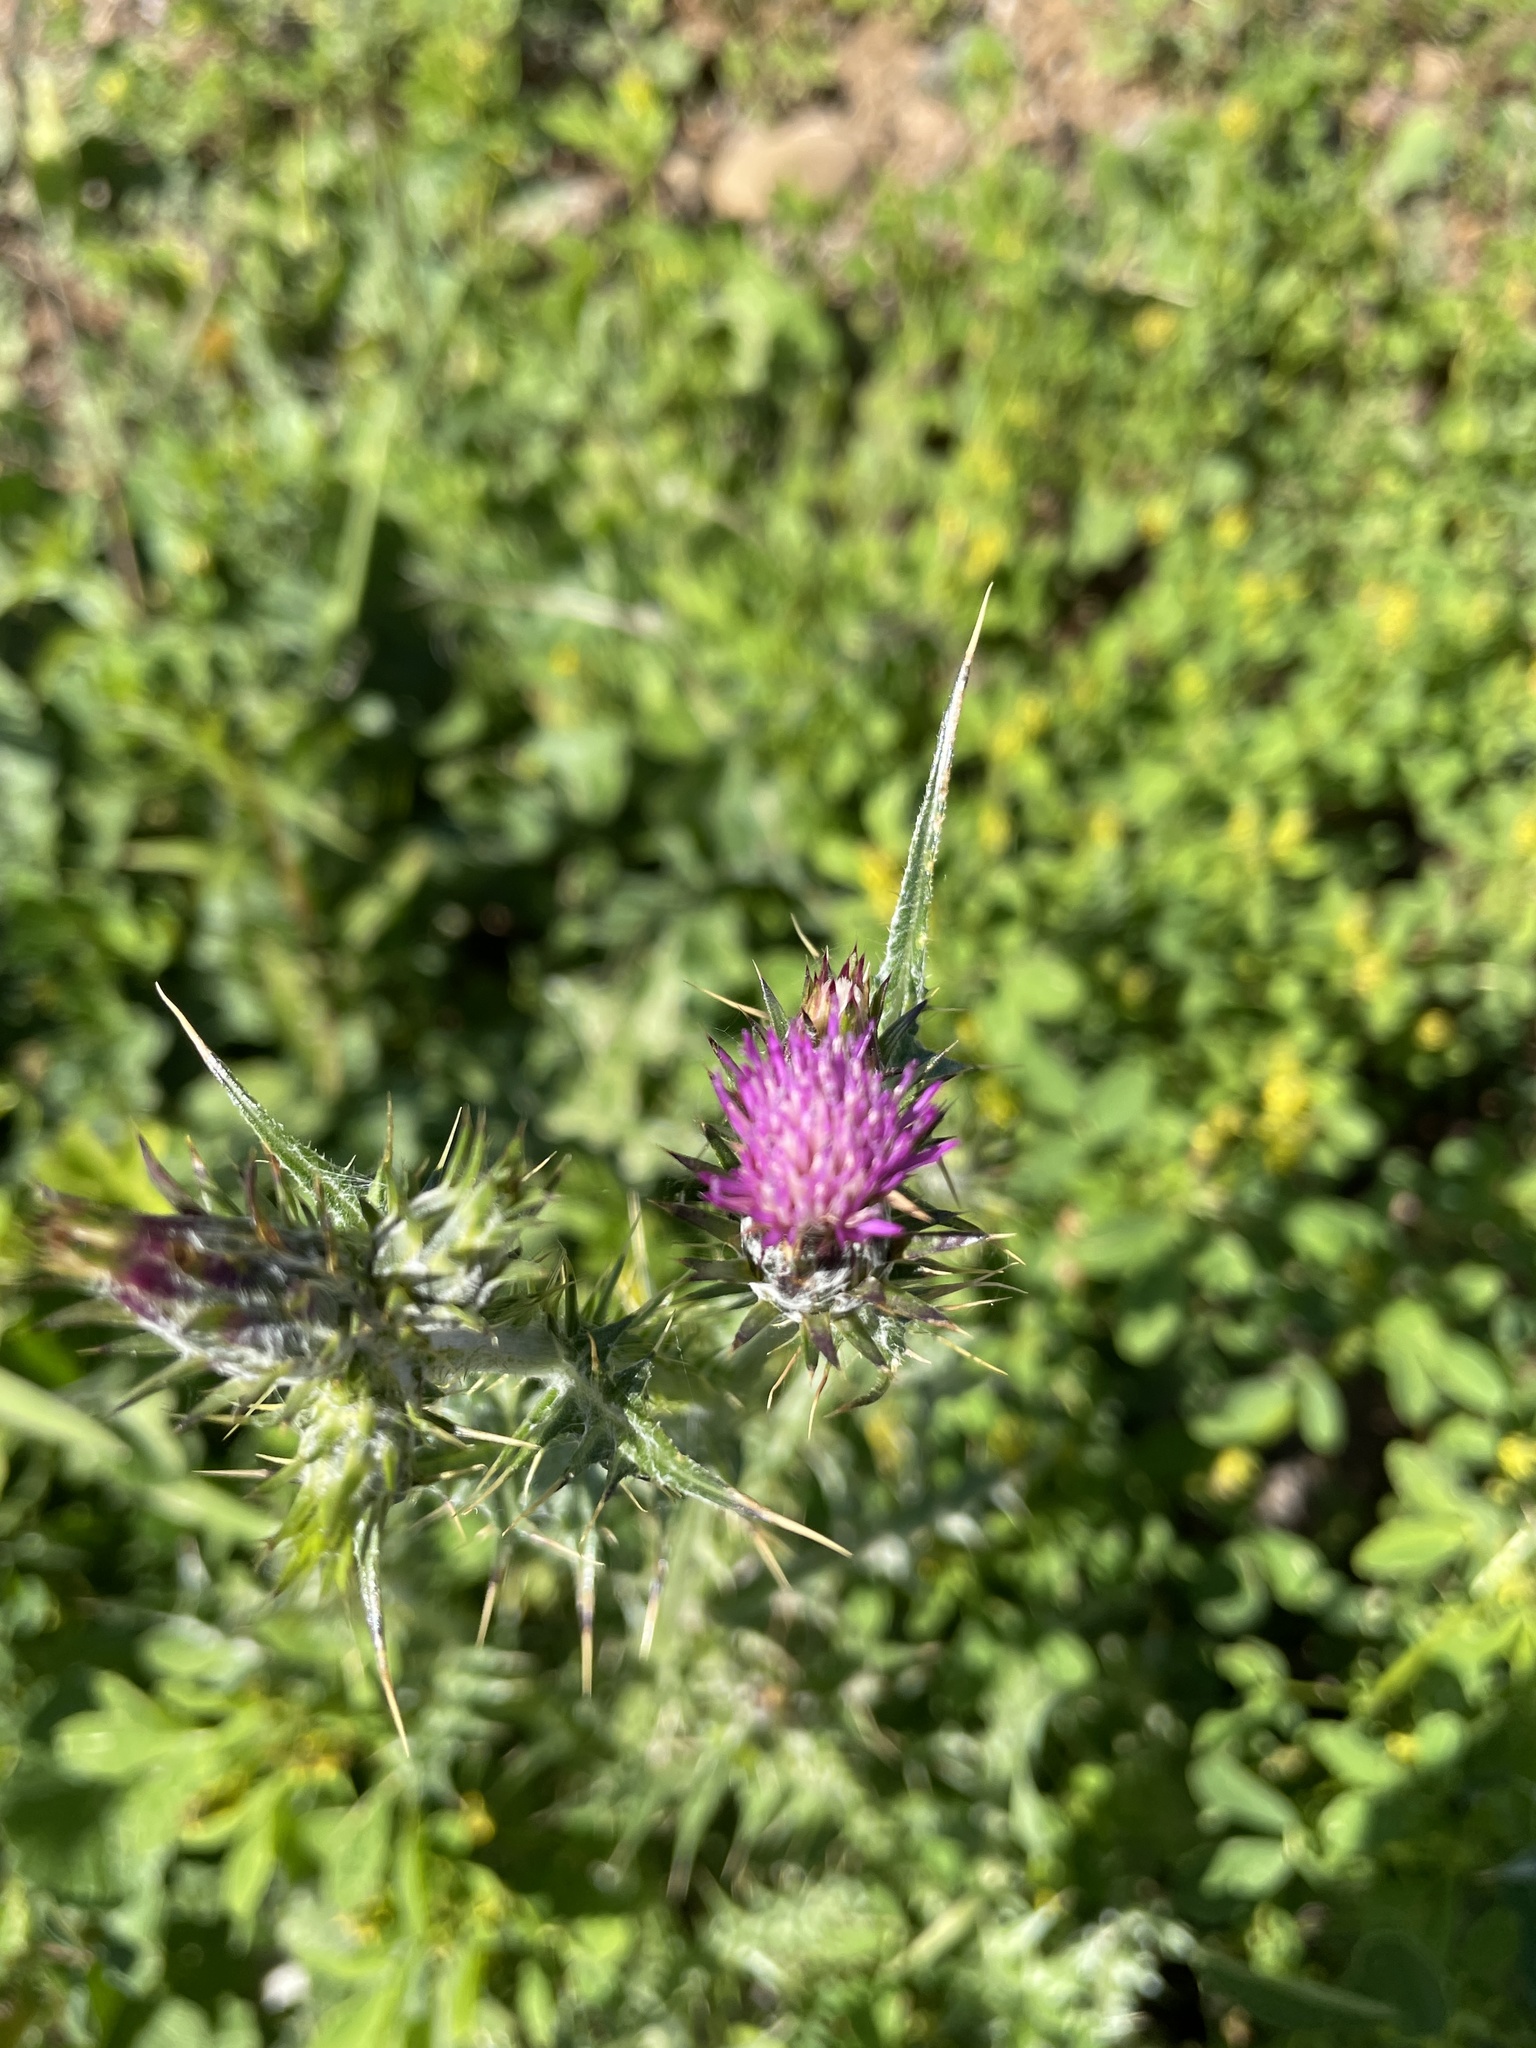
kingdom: Plantae
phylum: Tracheophyta
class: Magnoliopsida
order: Asterales
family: Asteraceae
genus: Carduus
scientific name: Carduus pycnocephalus
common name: Plymouth thistle
